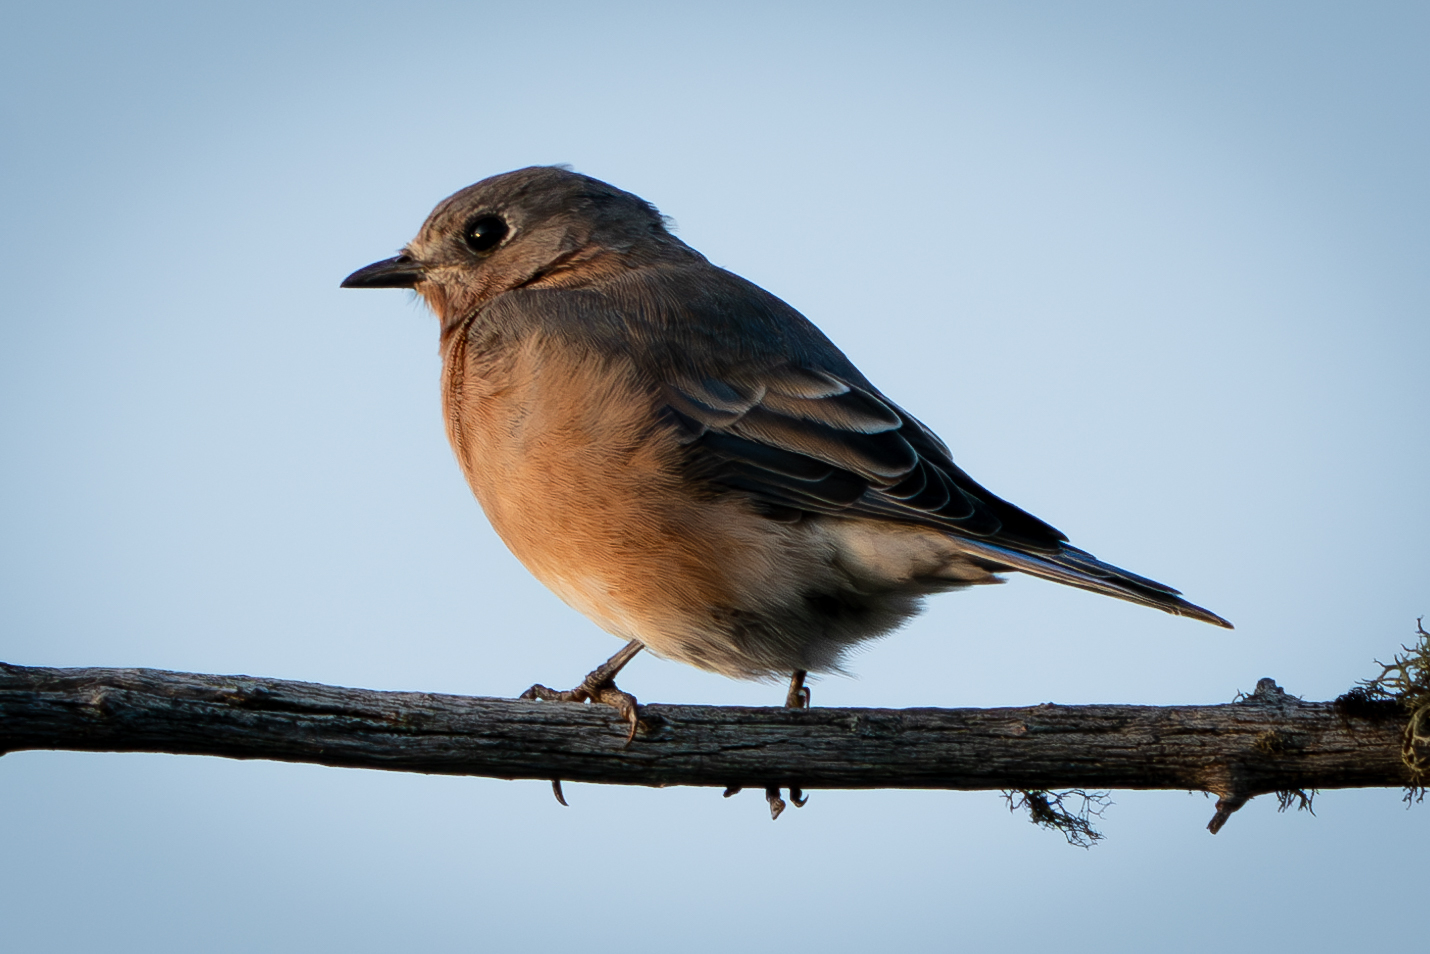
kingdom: Animalia
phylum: Chordata
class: Aves
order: Passeriformes
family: Turdidae
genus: Sialia
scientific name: Sialia sialis
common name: Eastern bluebird
